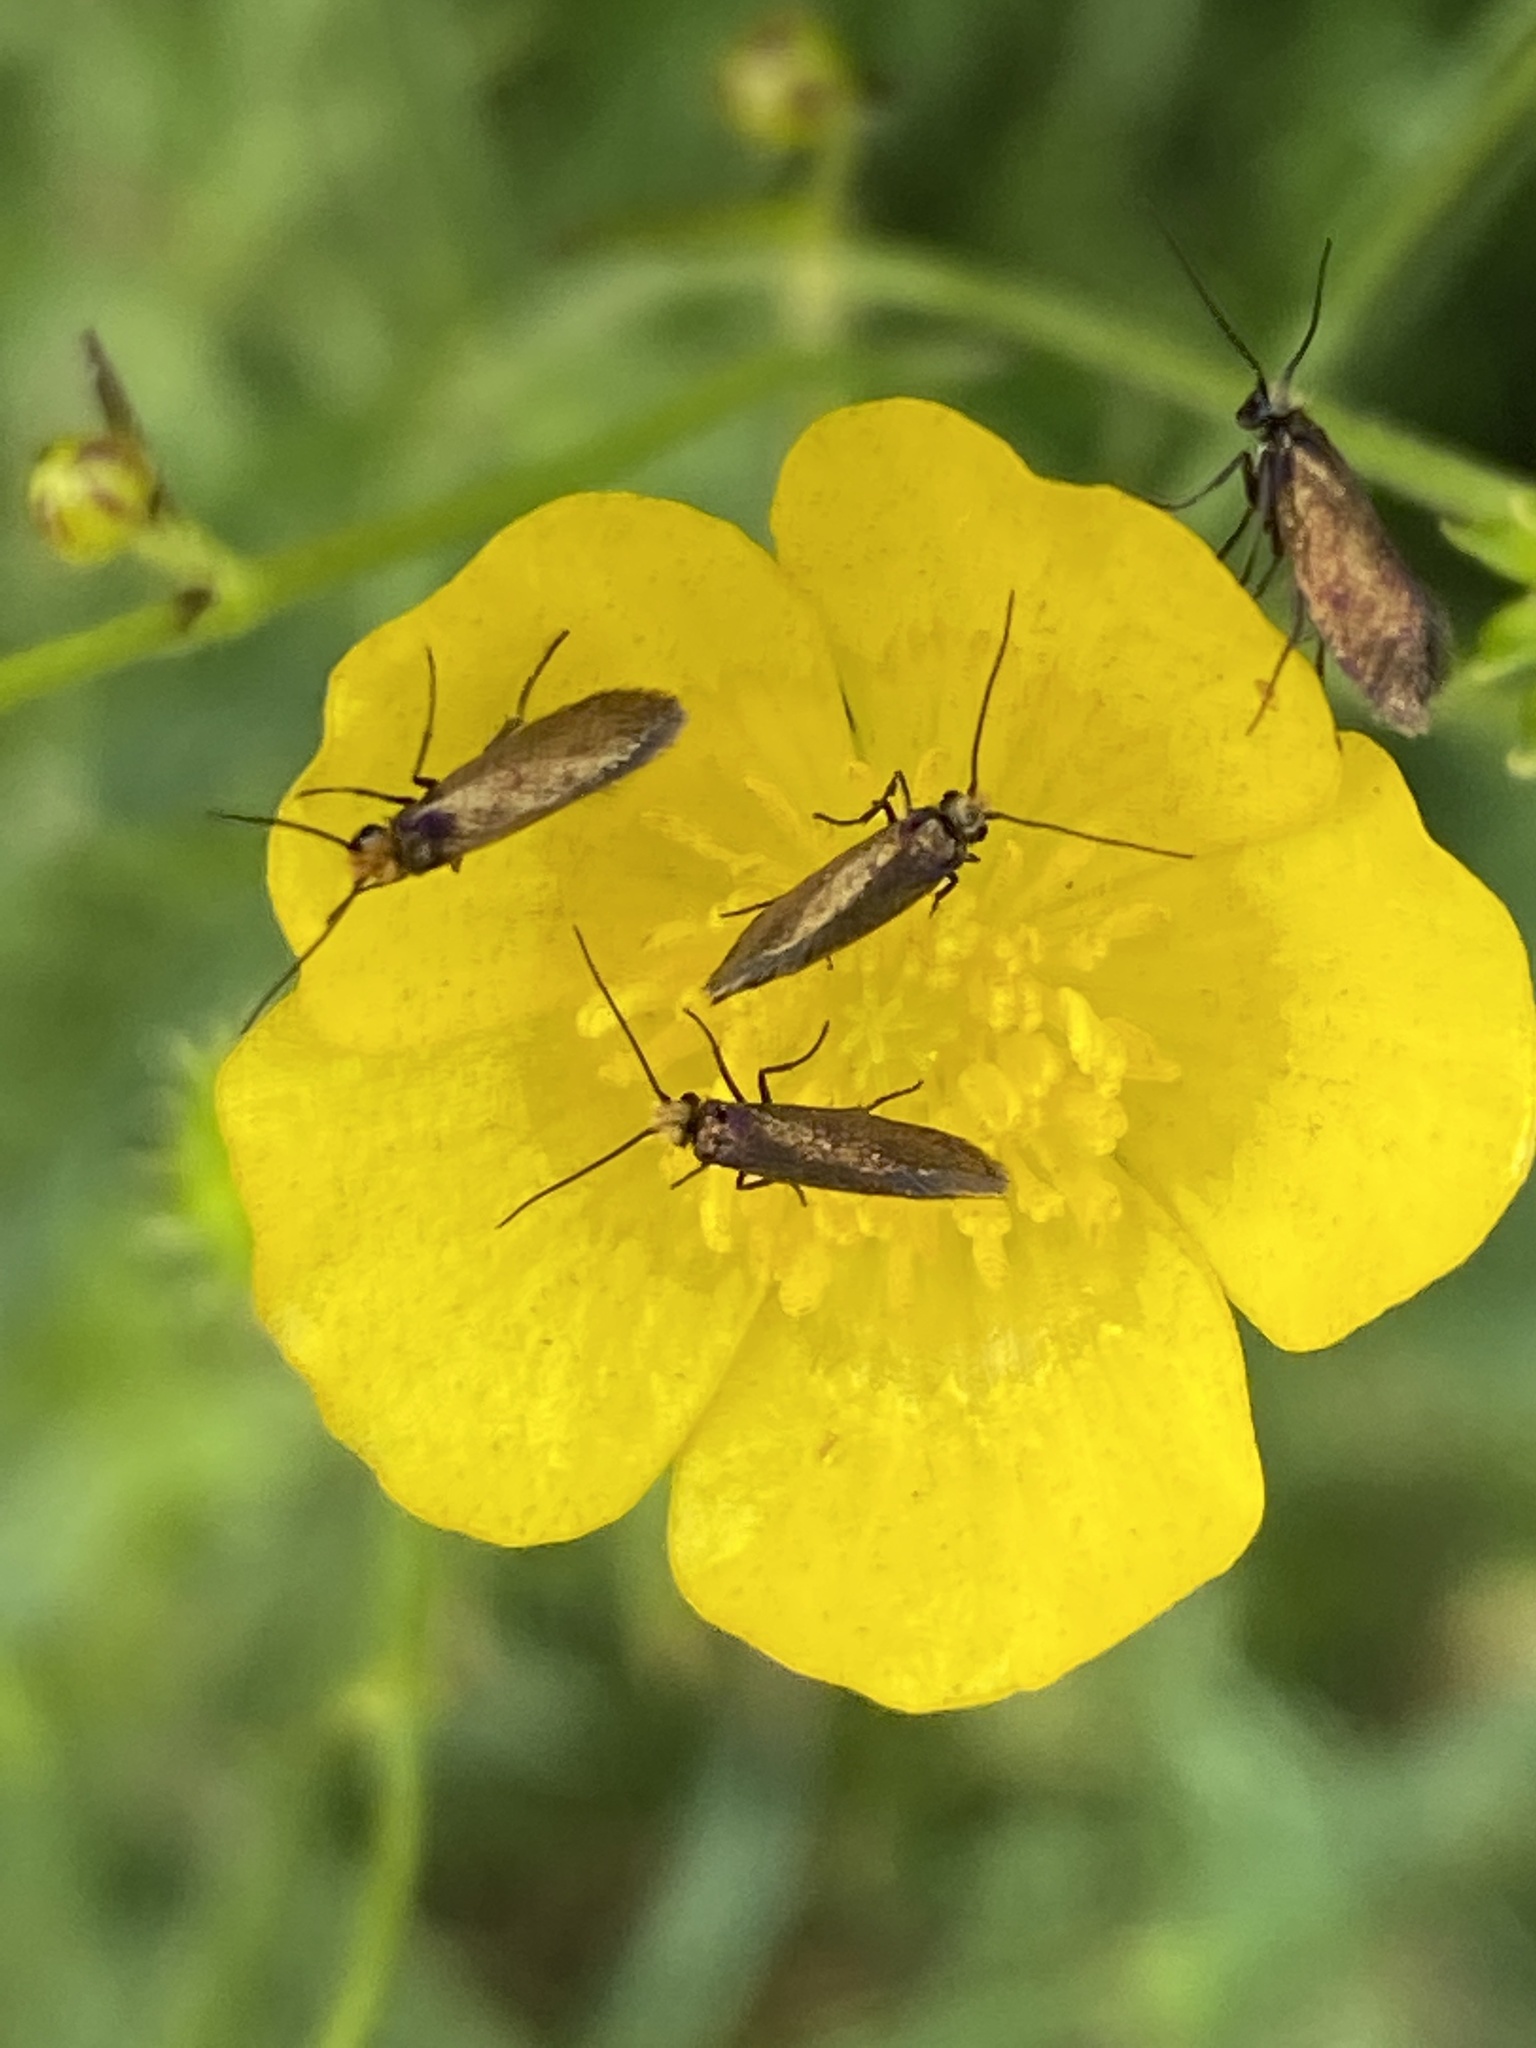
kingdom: Animalia
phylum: Arthropoda
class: Insecta
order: Lepidoptera
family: Micropterigidae
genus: Micropterix
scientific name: Micropterix calthella
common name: Plain gold
